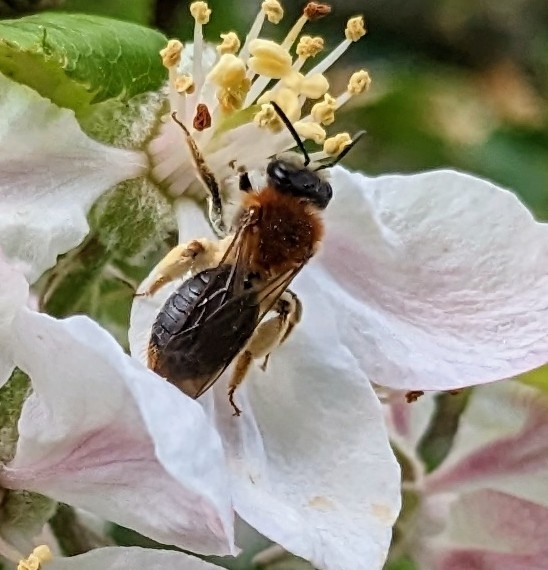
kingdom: Animalia
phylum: Arthropoda
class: Insecta
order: Hymenoptera
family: Andrenidae
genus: Andrena
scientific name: Andrena haemorrhoa
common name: Early mining bee
